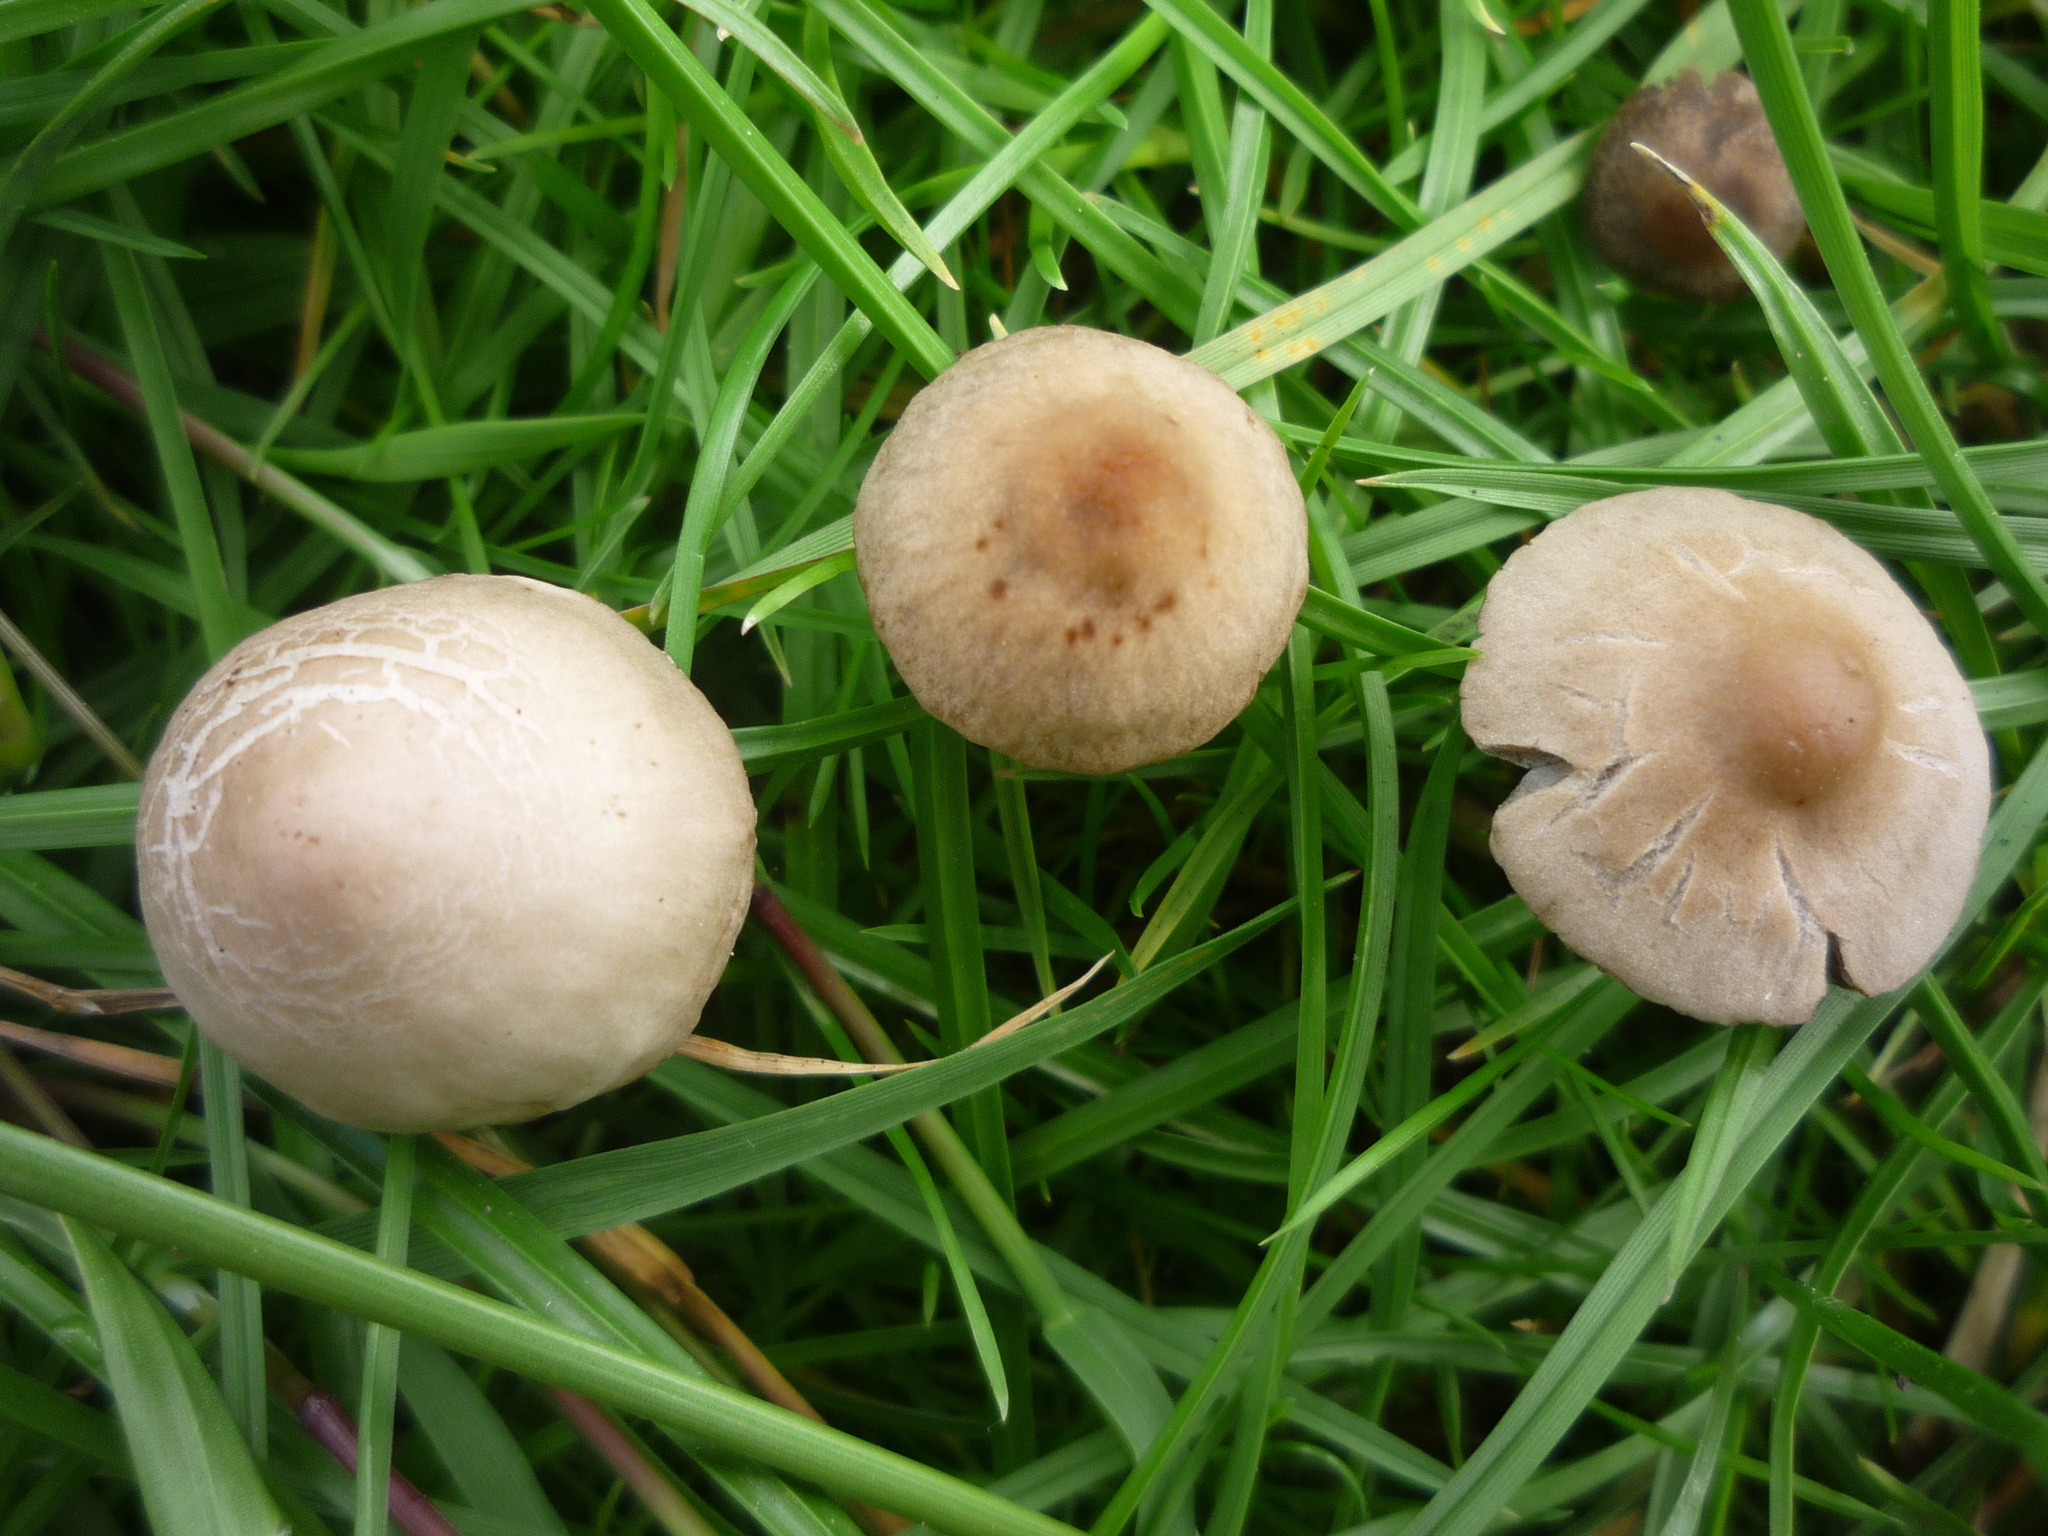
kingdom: Fungi
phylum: Basidiomycota
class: Agaricomycetes
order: Agaricales
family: Bolbitiaceae
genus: Panaeolina
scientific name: Panaeolina foenisecii
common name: Brown hay cap
